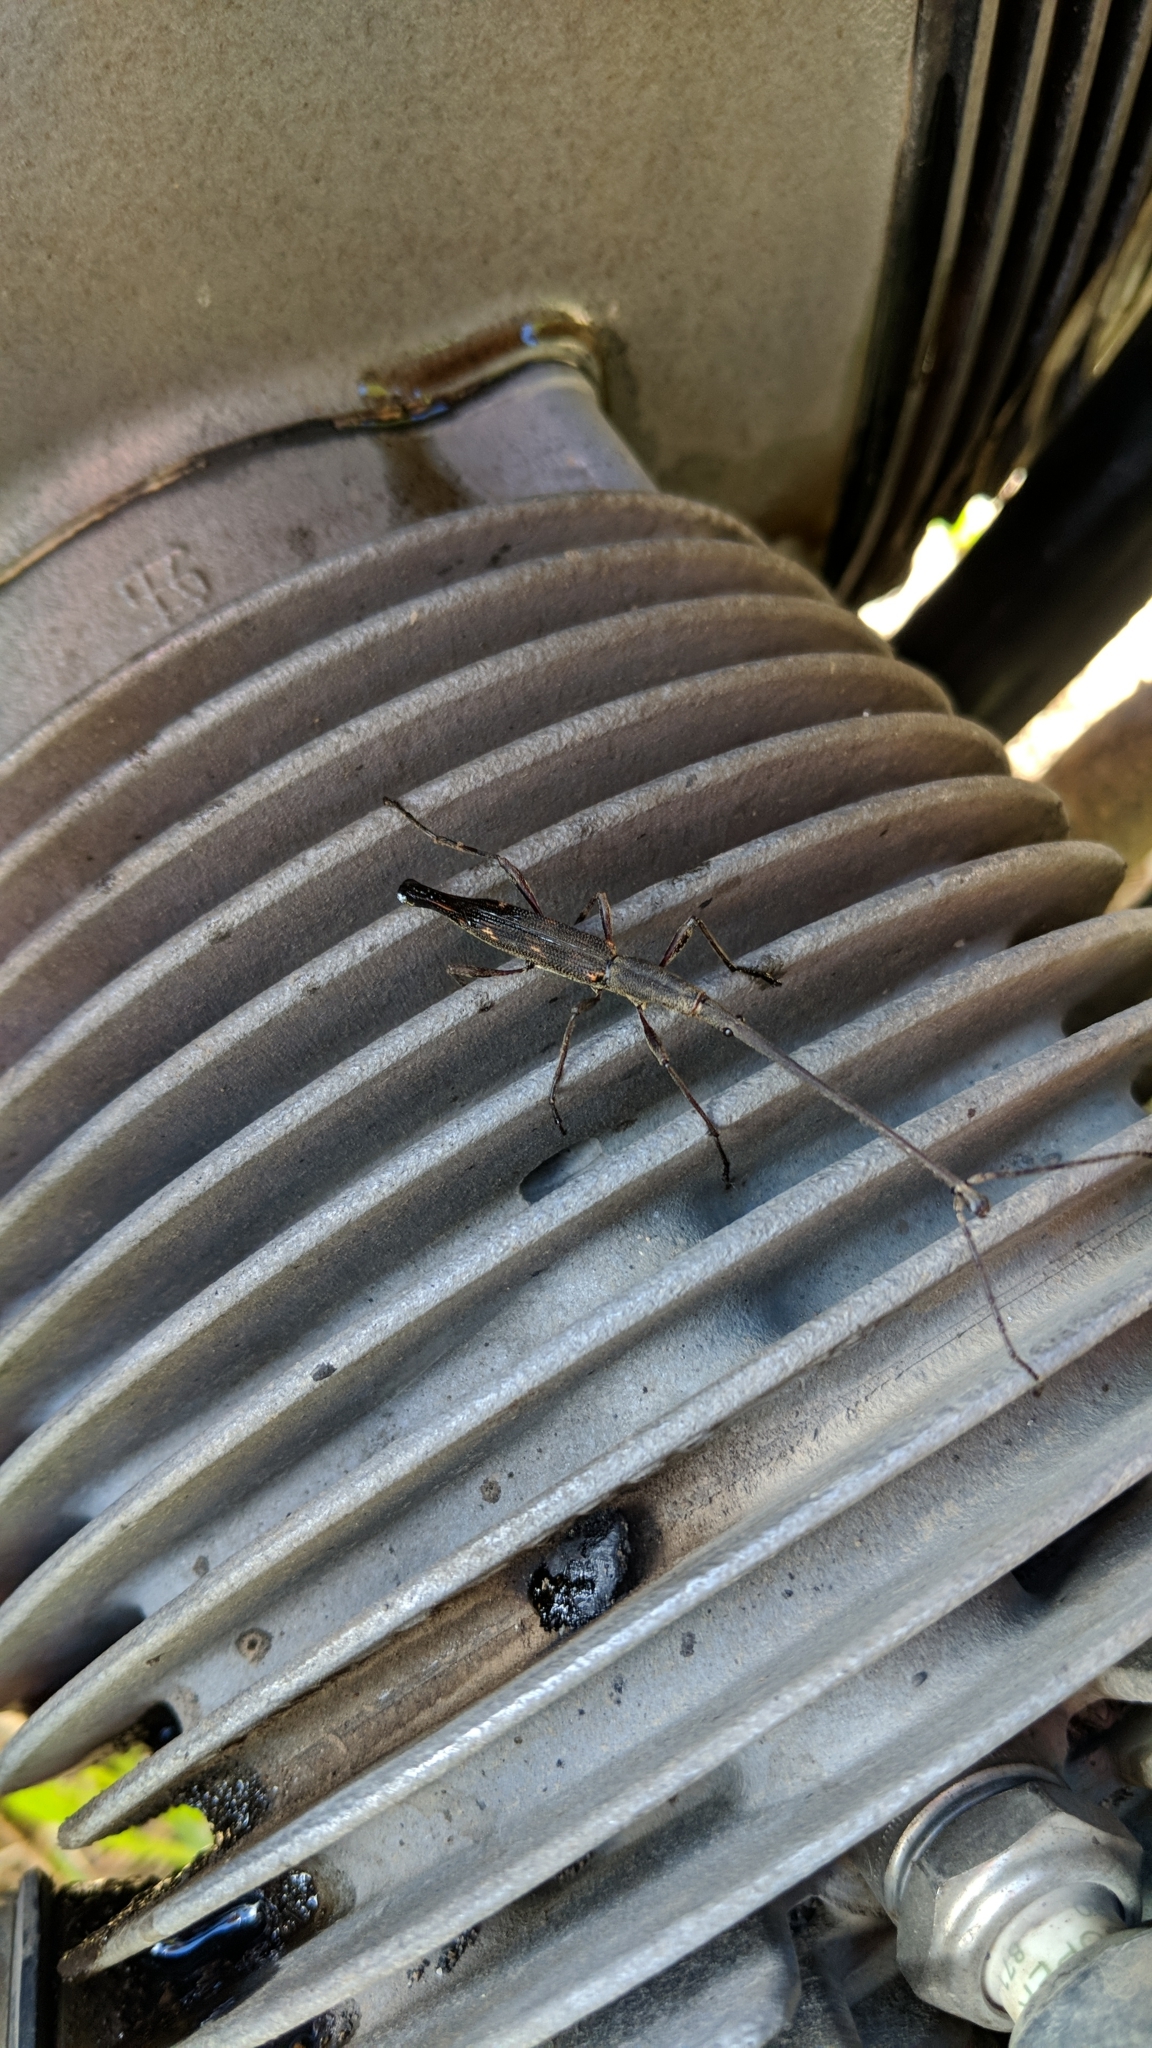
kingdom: Animalia
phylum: Arthropoda
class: Insecta
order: Coleoptera
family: Brentidae
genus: Lasiorhynchus
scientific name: Lasiorhynchus barbicornis
